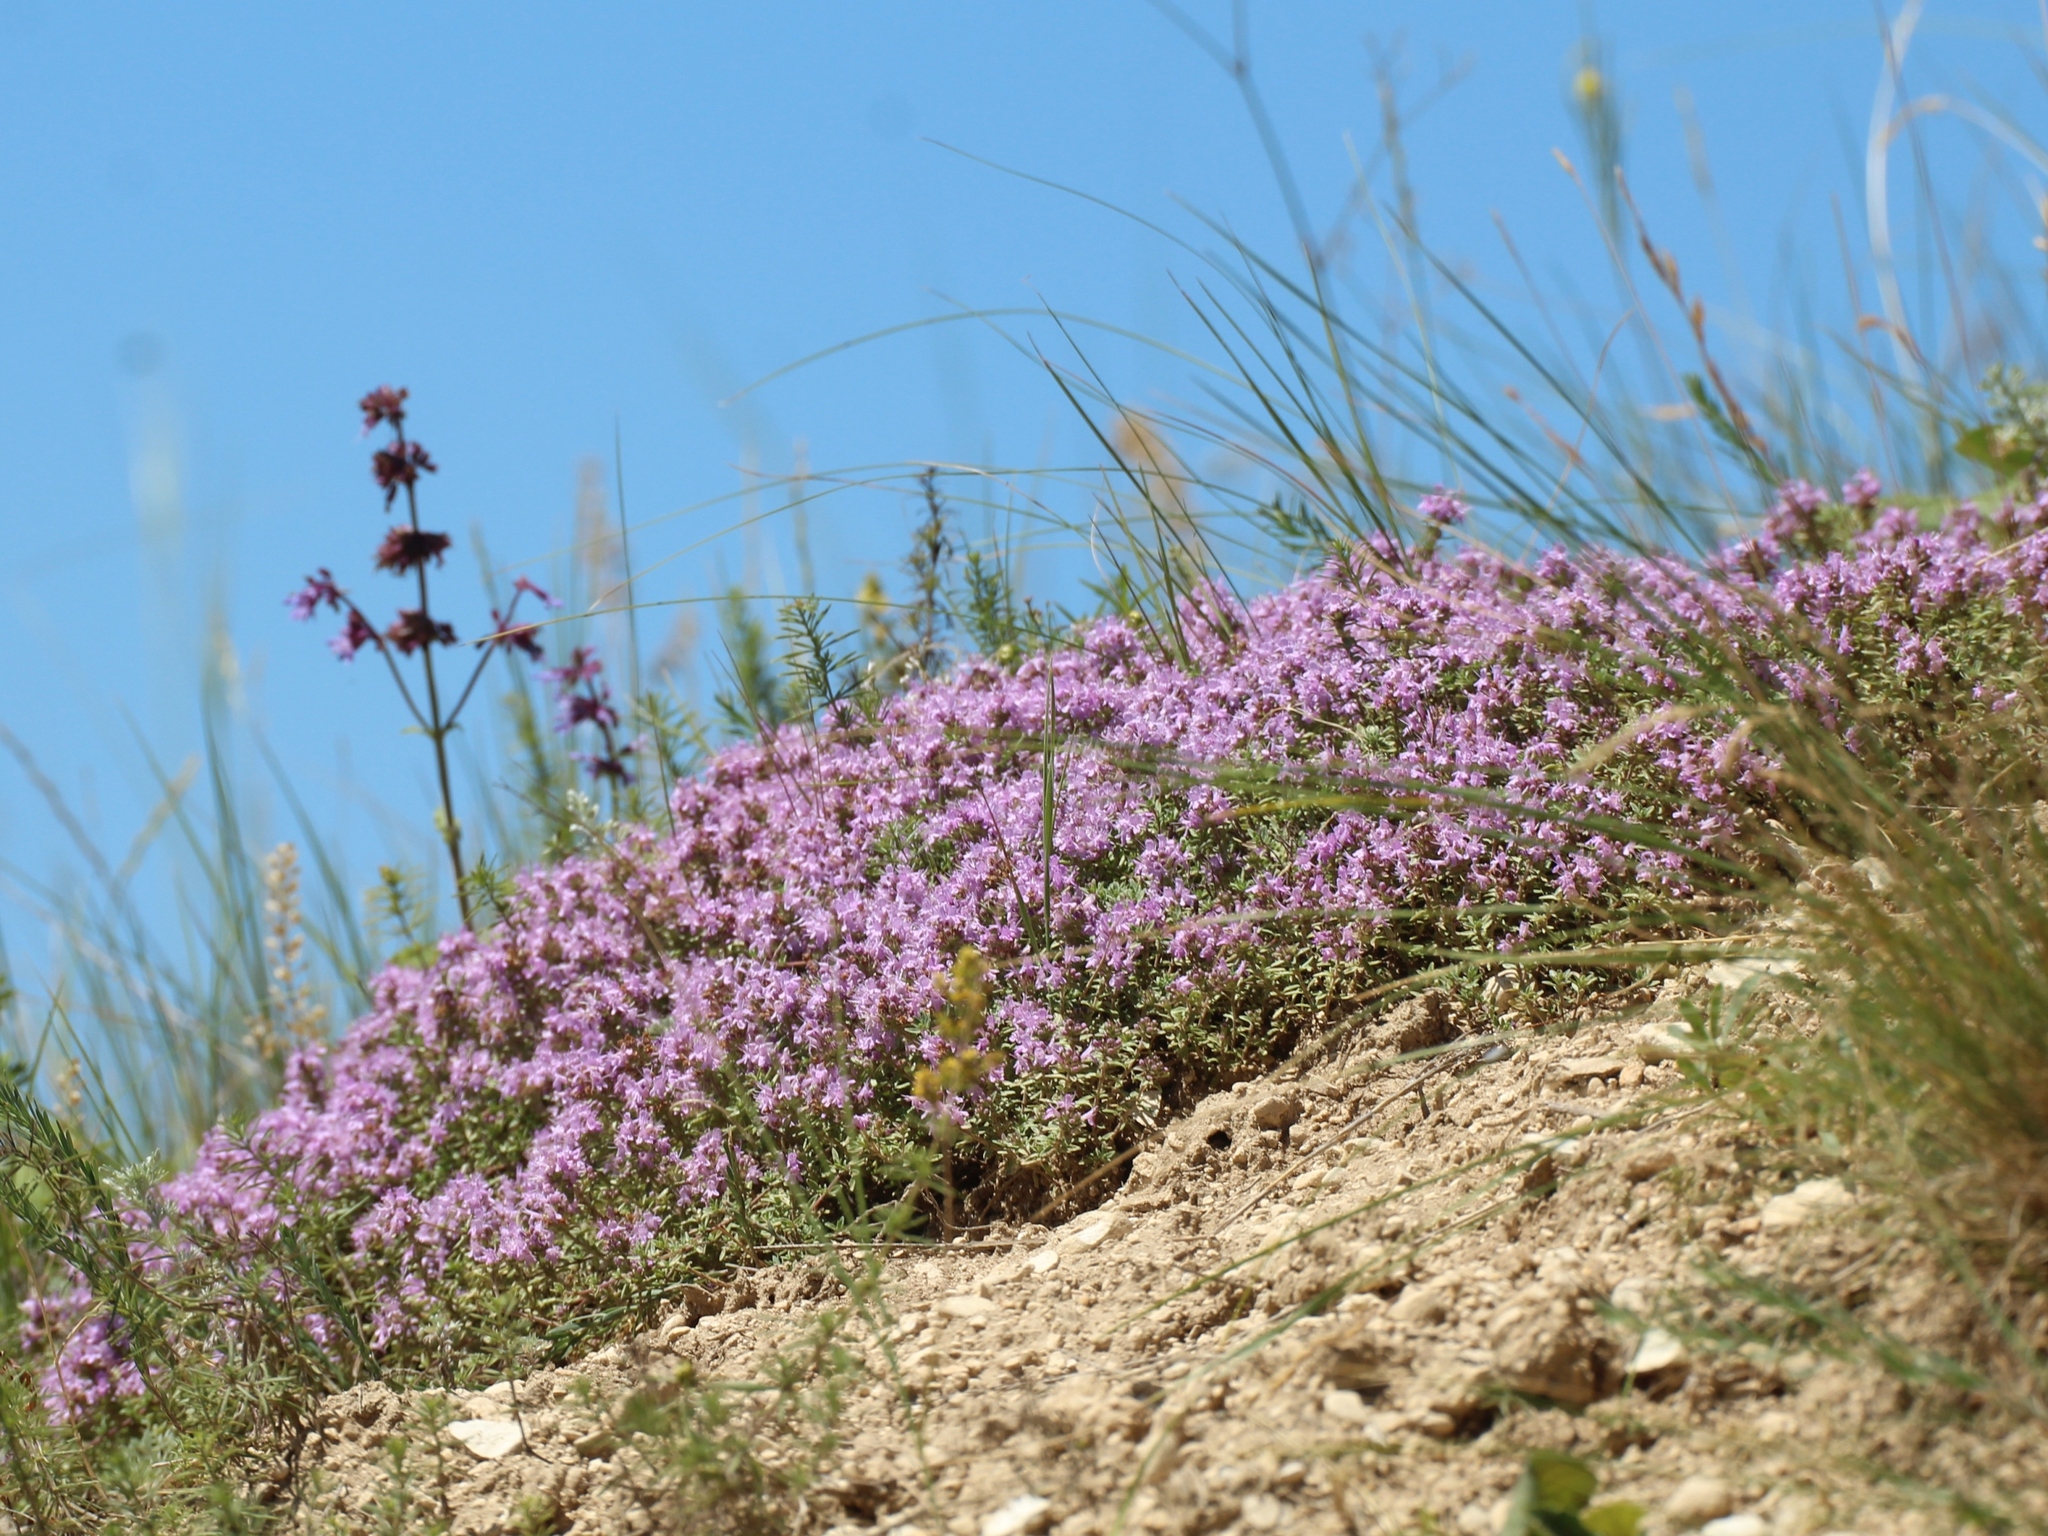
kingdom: Plantae
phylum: Tracheophyta
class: Magnoliopsida
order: Lamiales
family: Lamiaceae
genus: Thymus
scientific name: Thymus calcareus
